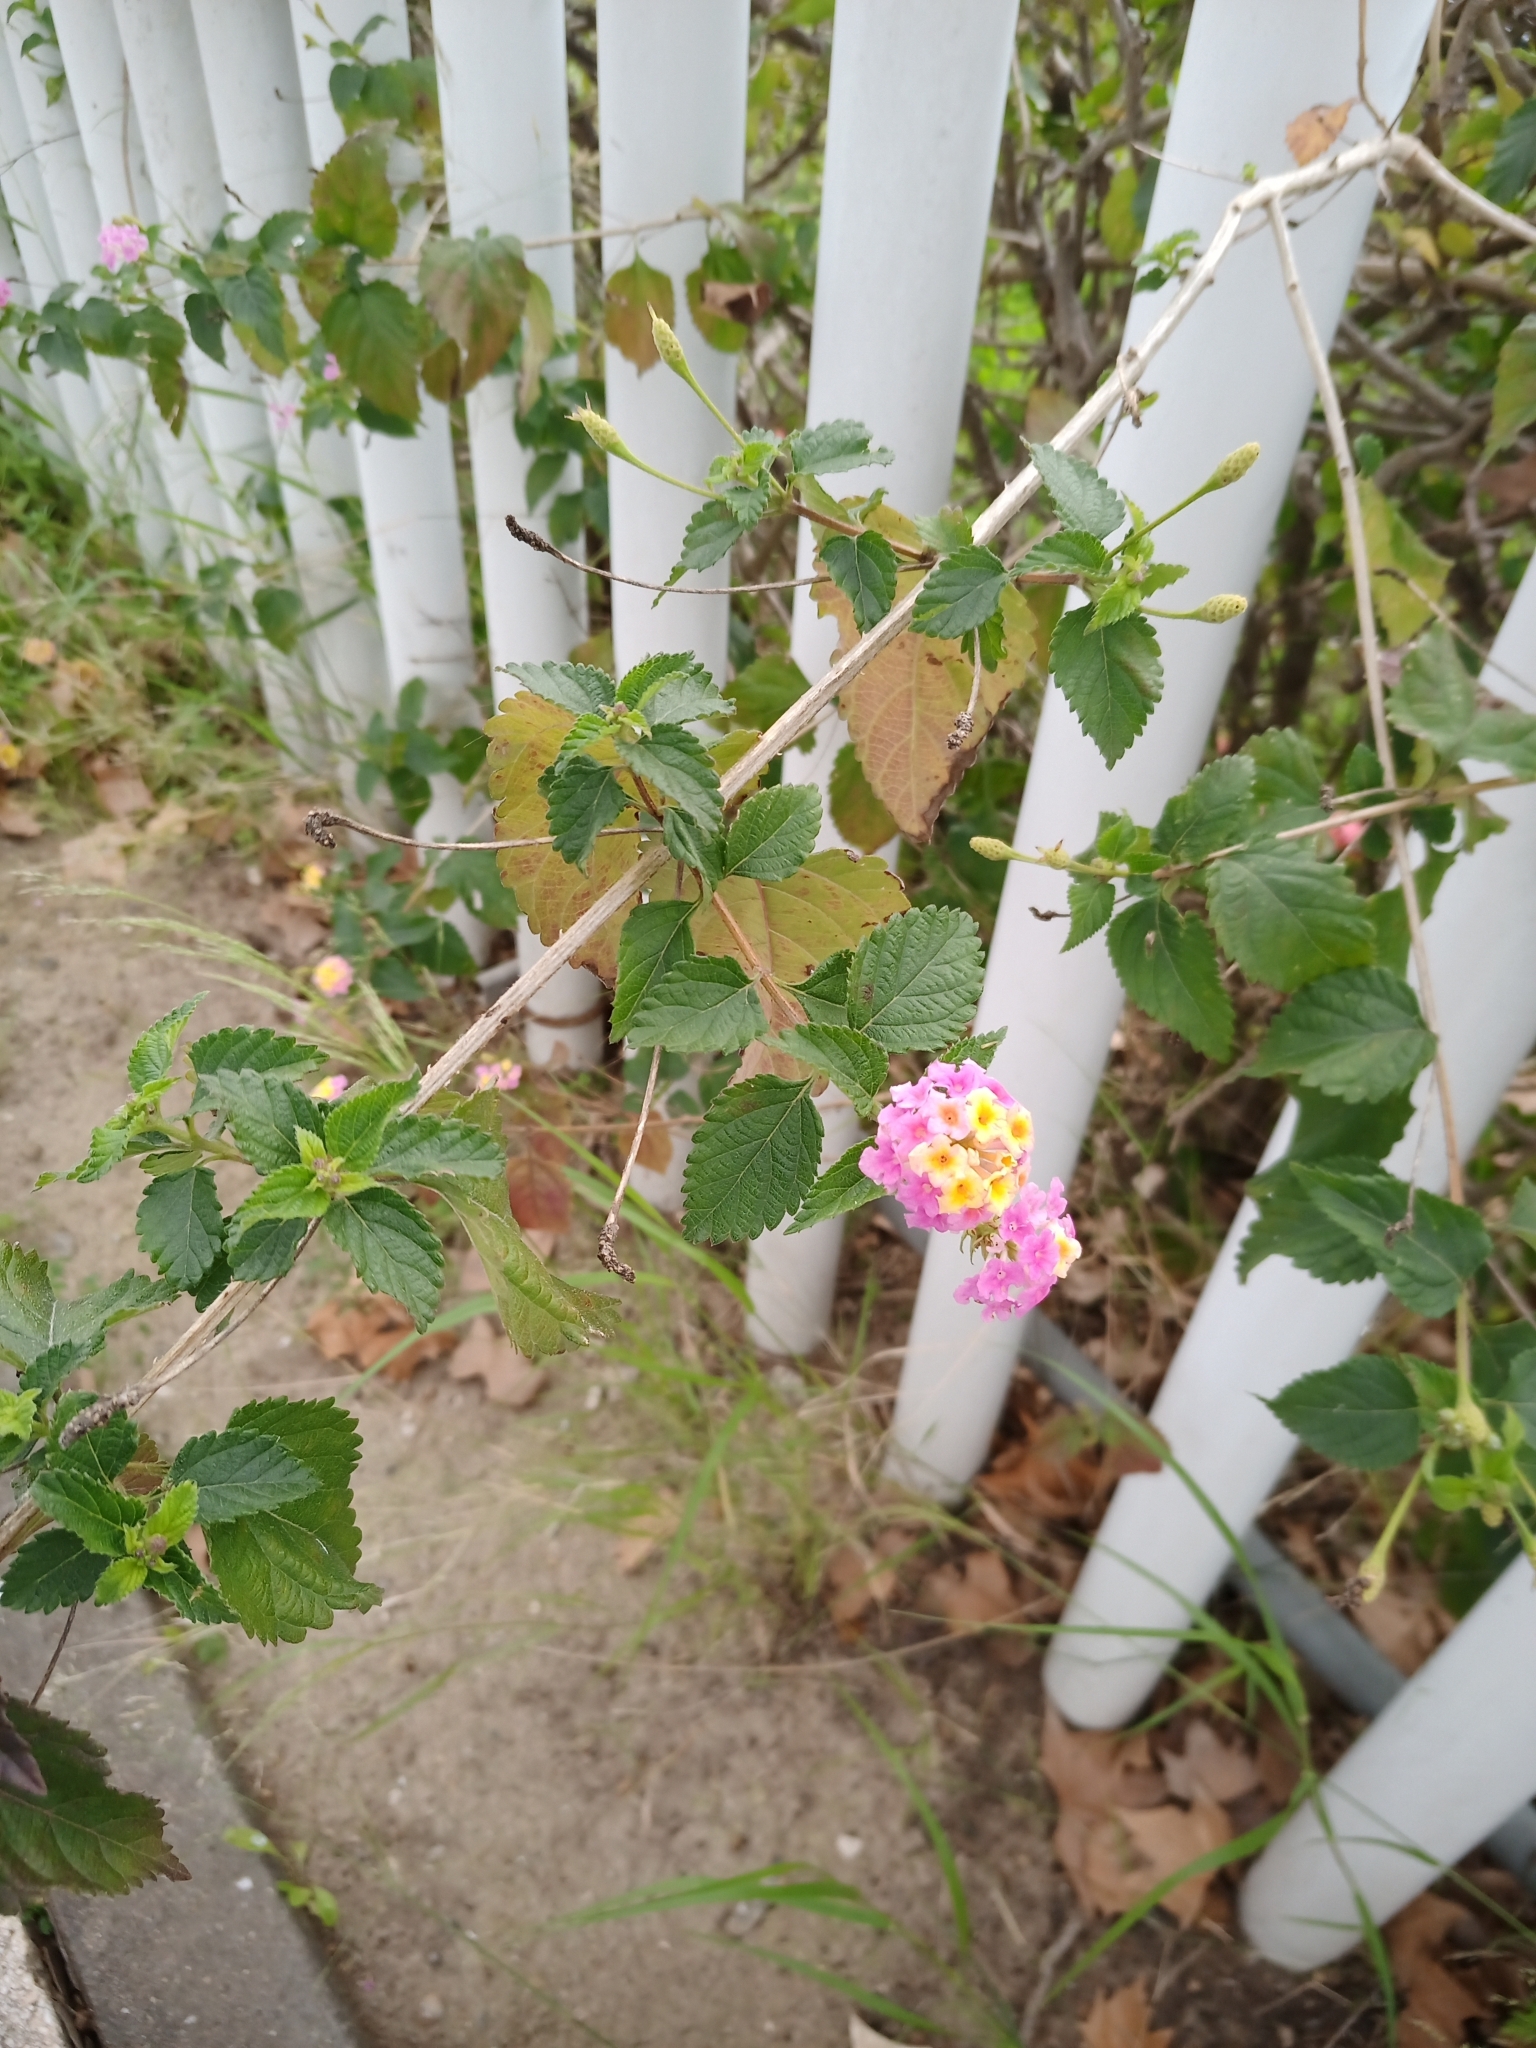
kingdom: Plantae
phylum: Tracheophyta
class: Magnoliopsida
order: Lamiales
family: Verbenaceae
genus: Lantana
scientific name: Lantana camara
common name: Lantana
